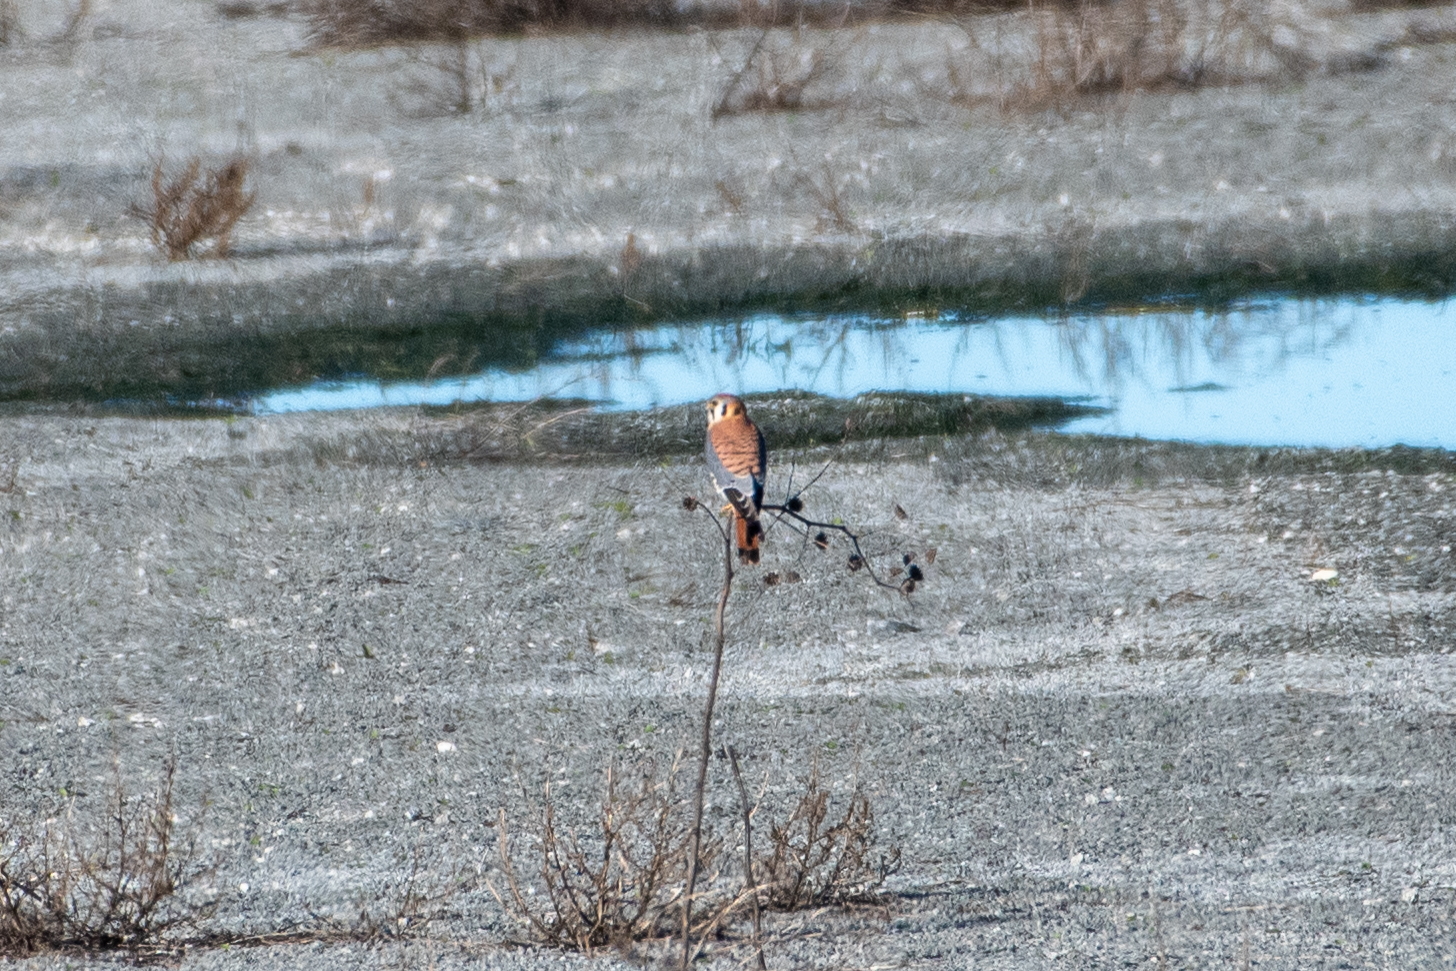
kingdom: Animalia
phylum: Chordata
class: Aves
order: Falconiformes
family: Falconidae
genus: Falco
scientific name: Falco sparverius
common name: American kestrel
